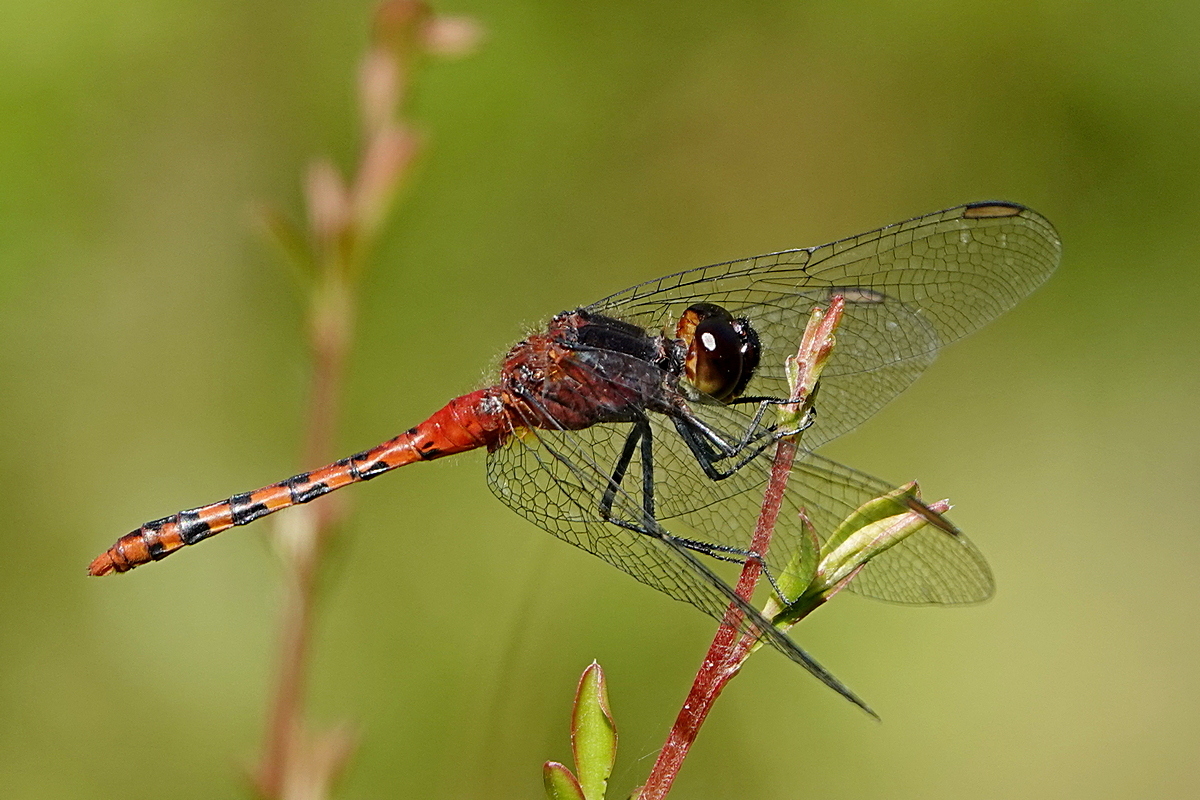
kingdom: Animalia
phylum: Arthropoda
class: Insecta
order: Odonata
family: Libellulidae
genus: Diplacodes
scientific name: Diplacodes melanopsis
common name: Black-faced percher
